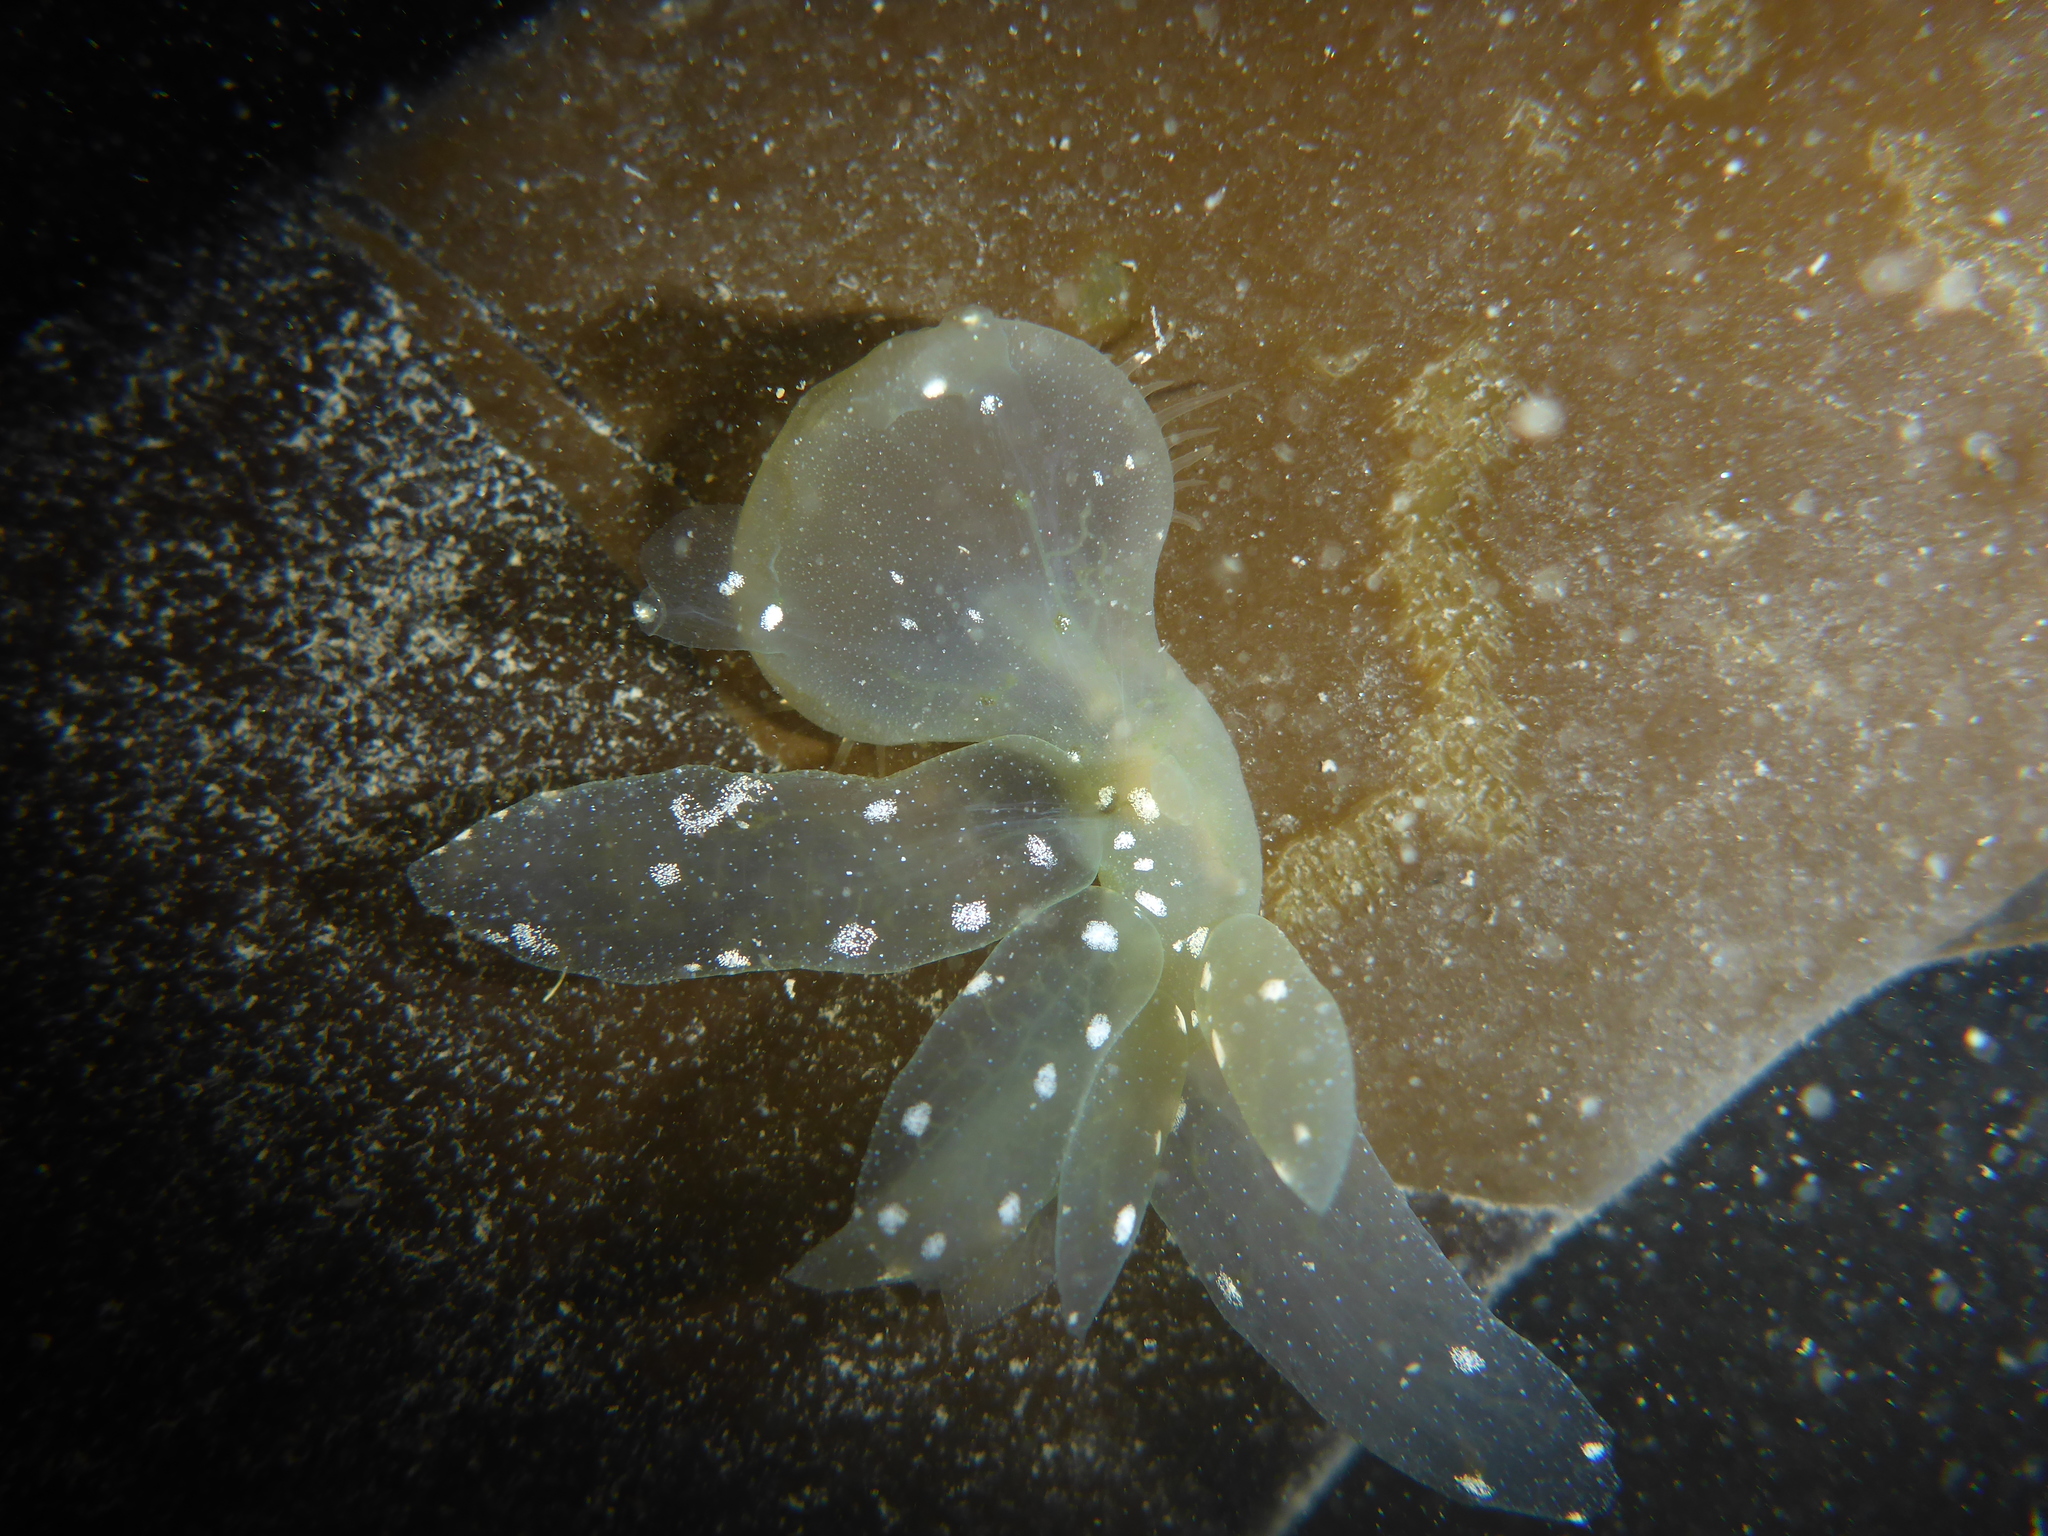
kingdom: Animalia
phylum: Mollusca
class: Gastropoda
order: Nudibranchia
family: Tethydidae
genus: Melibe
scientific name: Melibe leonina
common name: Lion nudibranch
